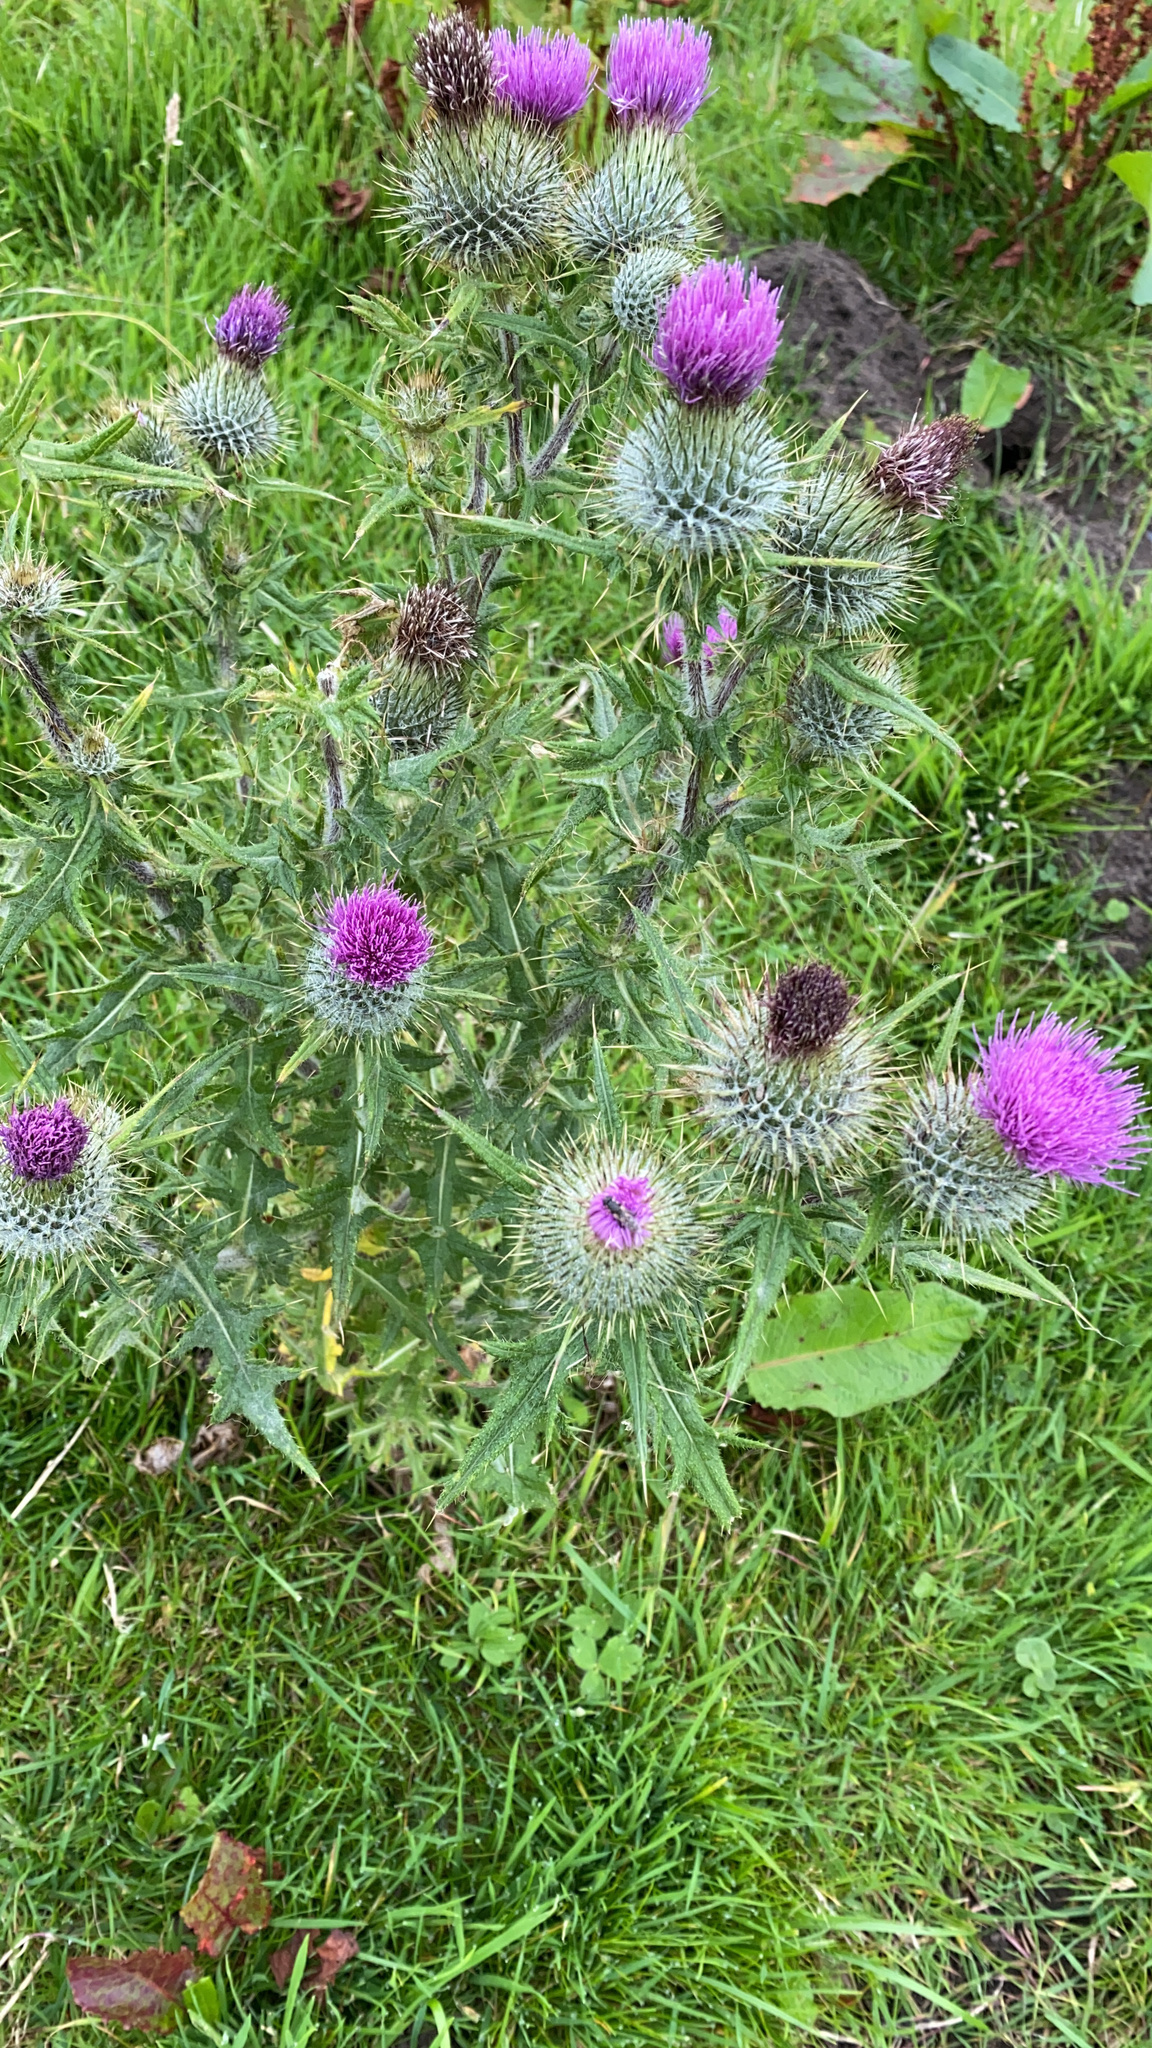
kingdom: Plantae
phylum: Tracheophyta
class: Magnoliopsida
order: Asterales
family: Asteraceae
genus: Cirsium
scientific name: Cirsium vulgare
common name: Bull thistle
